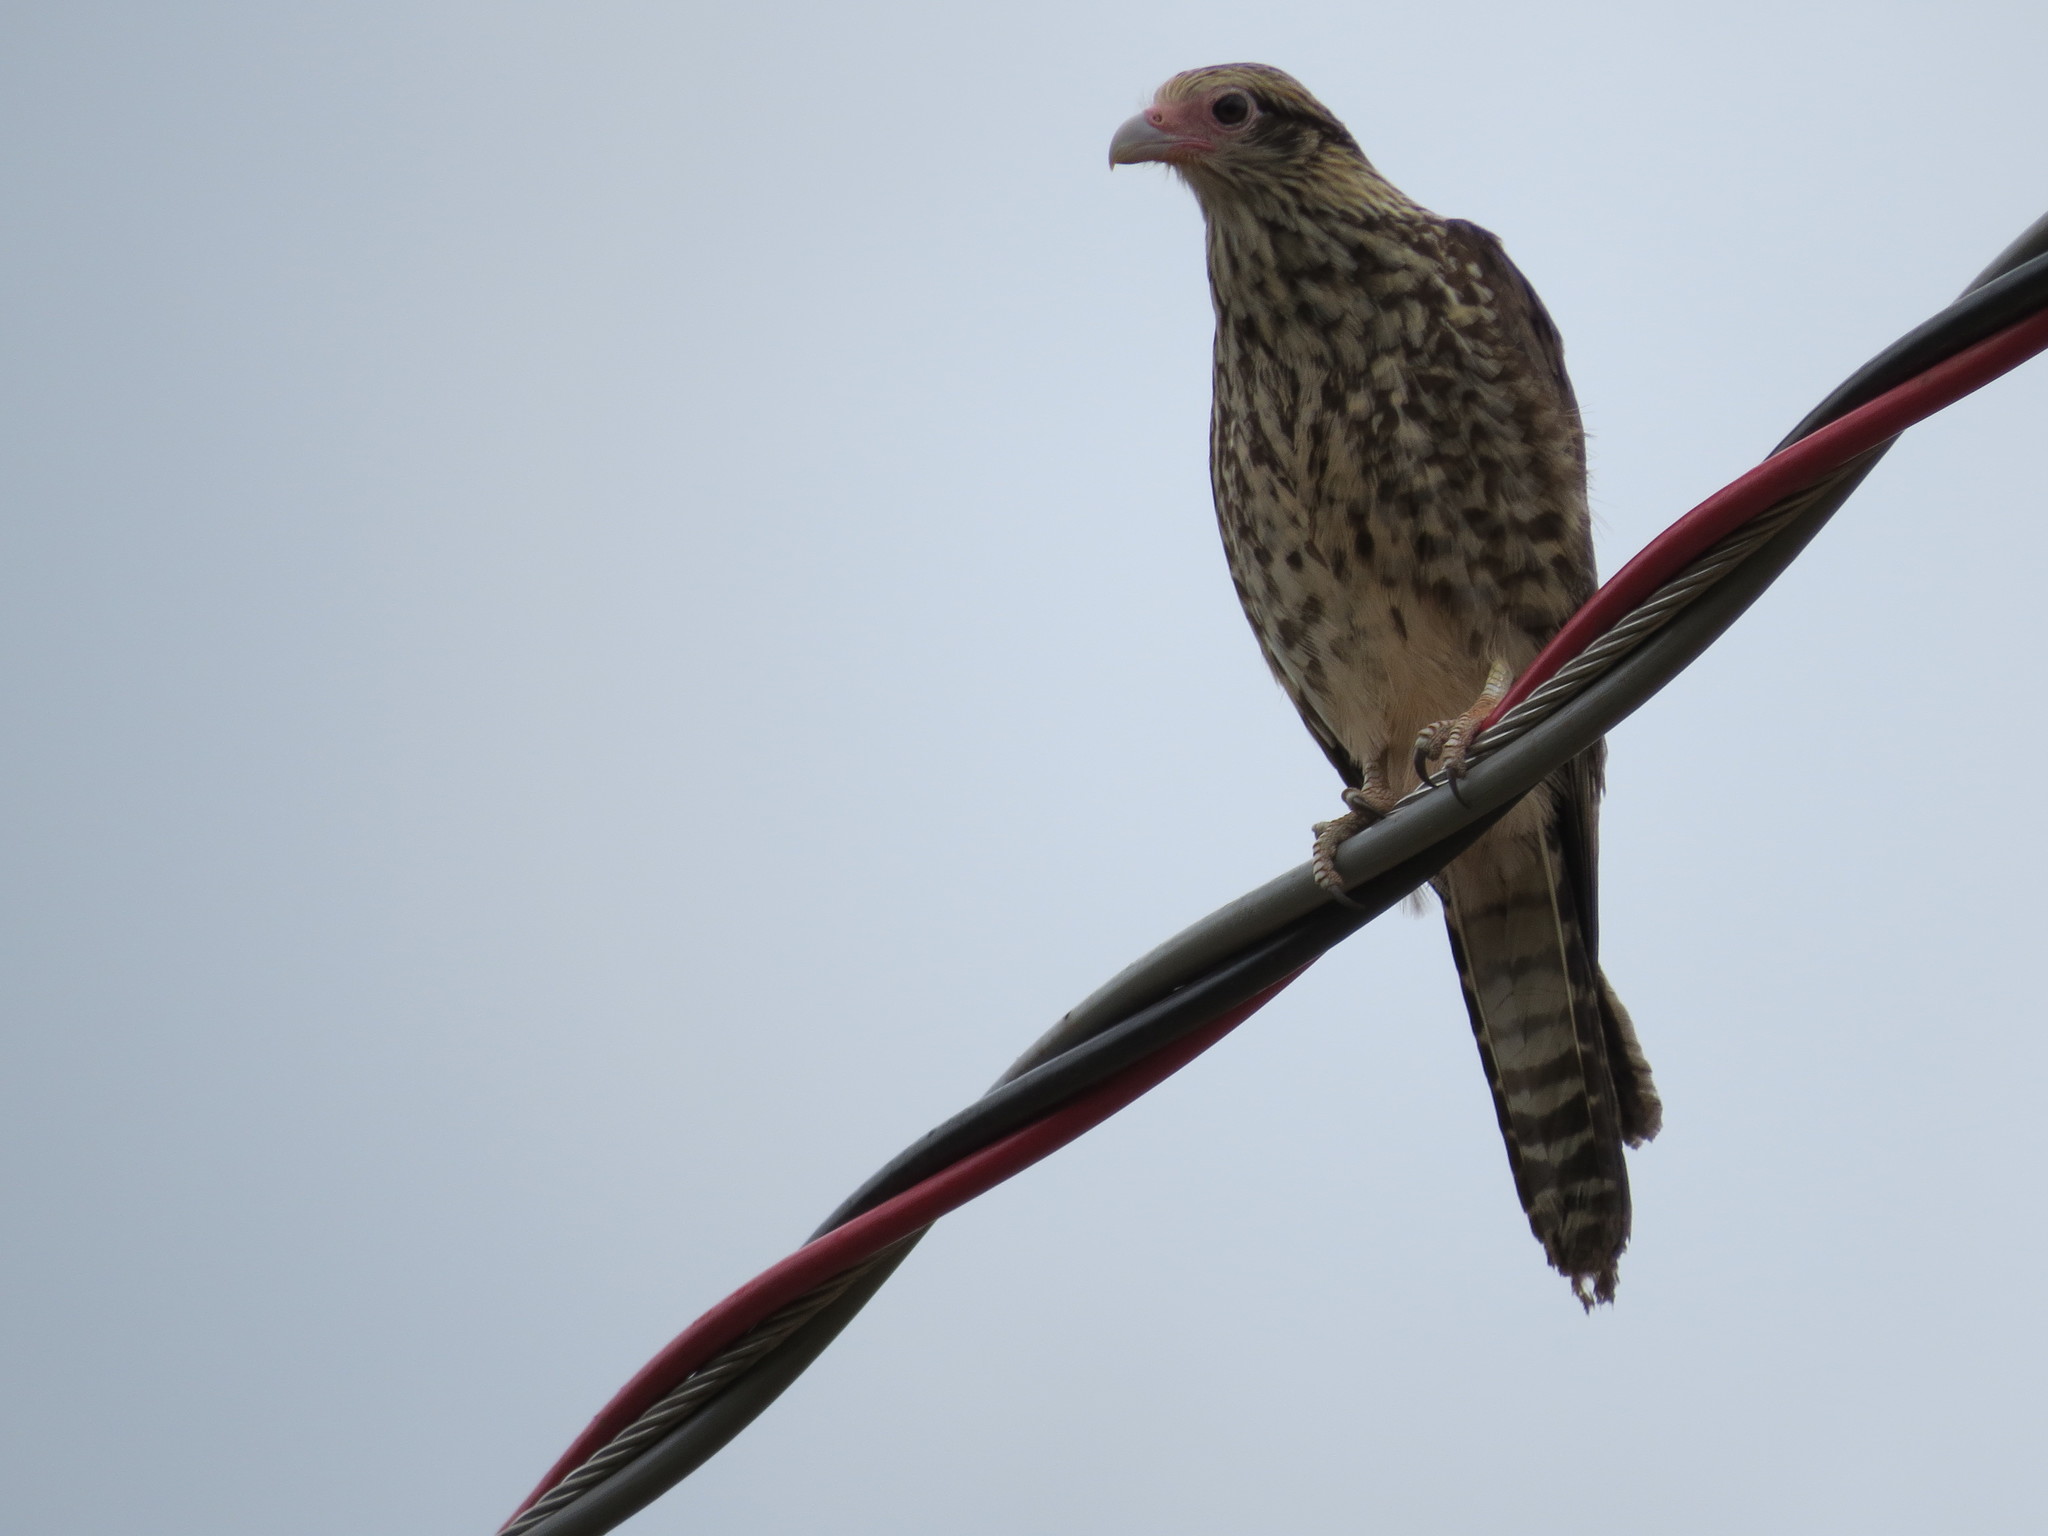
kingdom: Animalia
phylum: Chordata
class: Aves
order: Falconiformes
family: Falconidae
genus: Daptrius
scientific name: Daptrius
